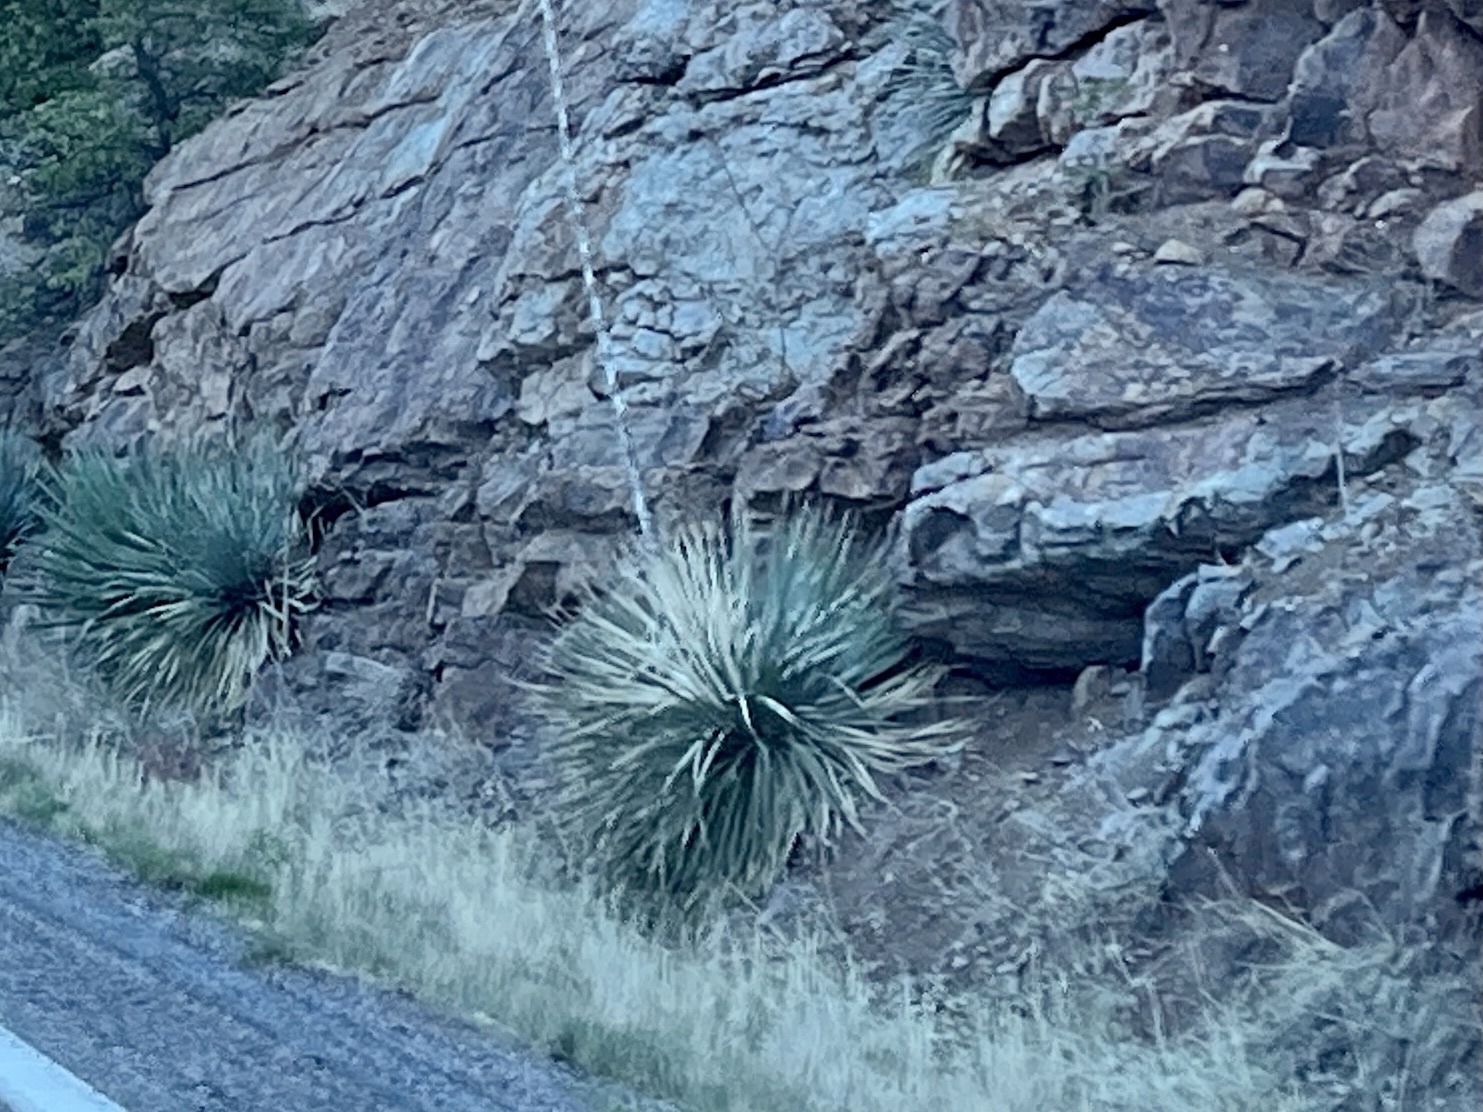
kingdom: Plantae
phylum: Tracheophyta
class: Liliopsida
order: Asparagales
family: Asparagaceae
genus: Dasylirion
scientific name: Dasylirion wheeleri
